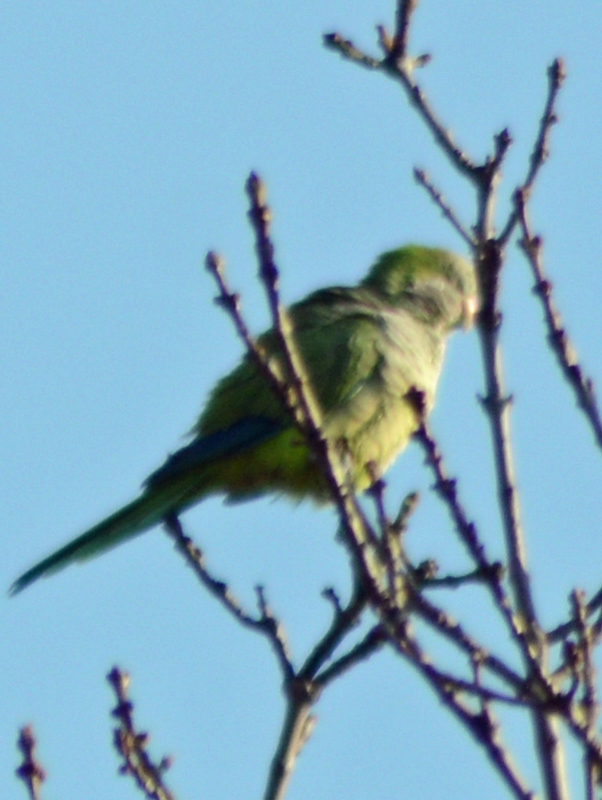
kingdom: Animalia
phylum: Chordata
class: Aves
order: Psittaciformes
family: Psittacidae
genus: Myiopsitta
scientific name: Myiopsitta monachus
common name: Monk parakeet
